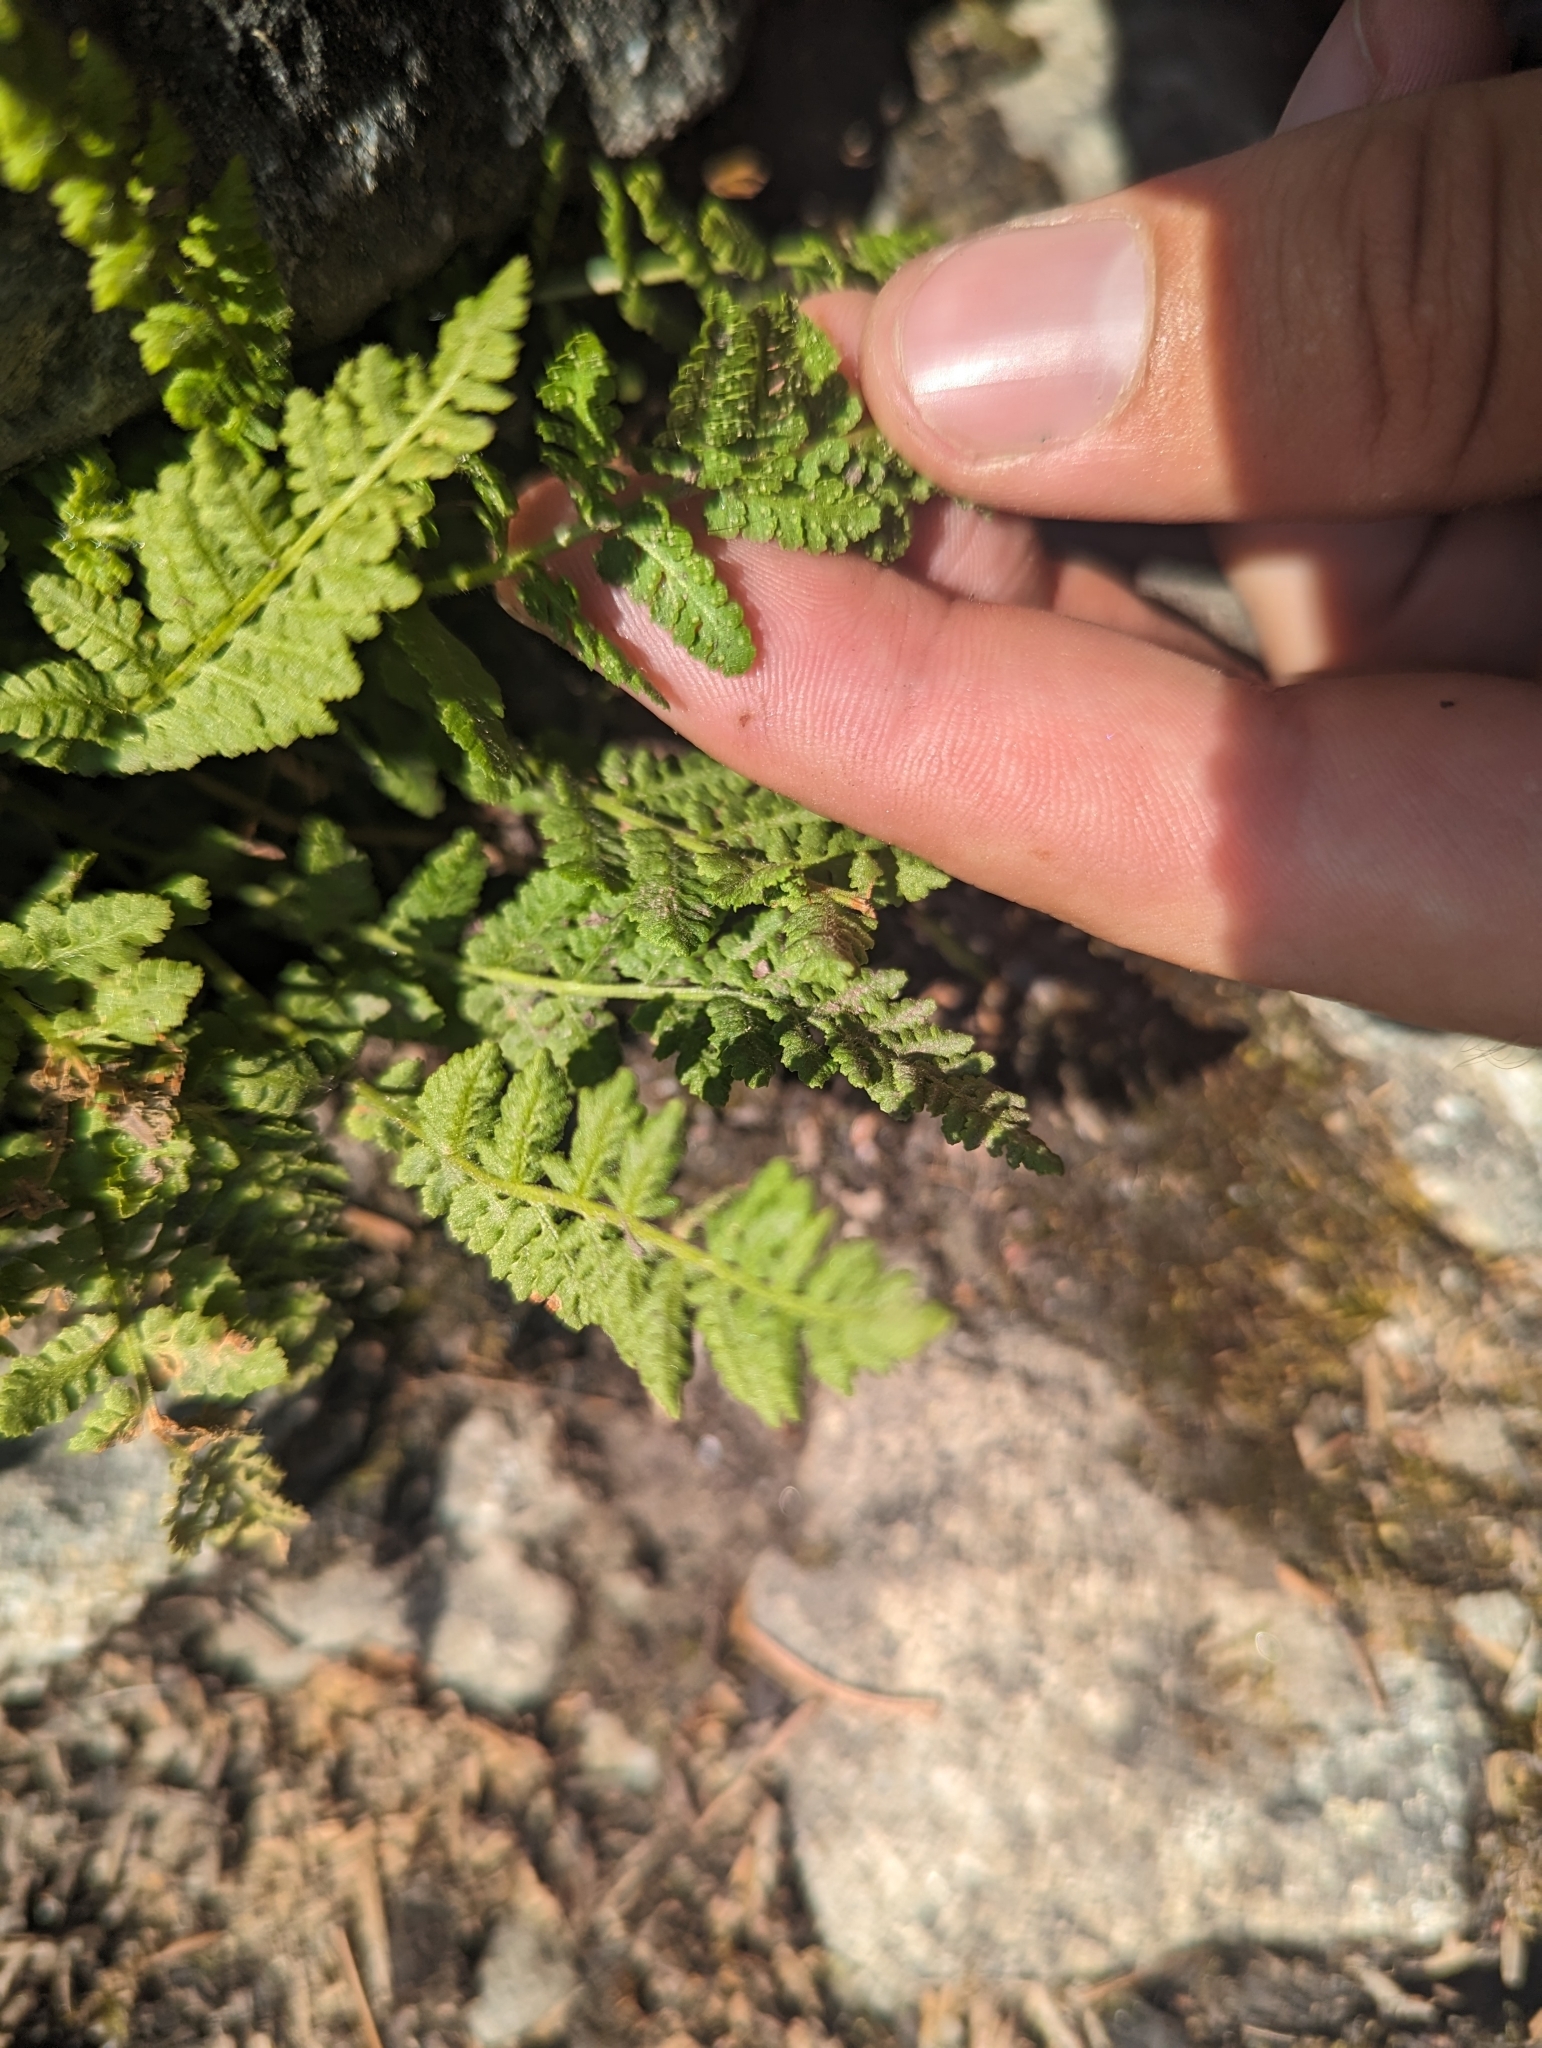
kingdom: Plantae
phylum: Tracheophyta
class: Polypodiopsida
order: Polypodiales
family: Woodsiaceae
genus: Physematium
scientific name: Physematium scopulinum
